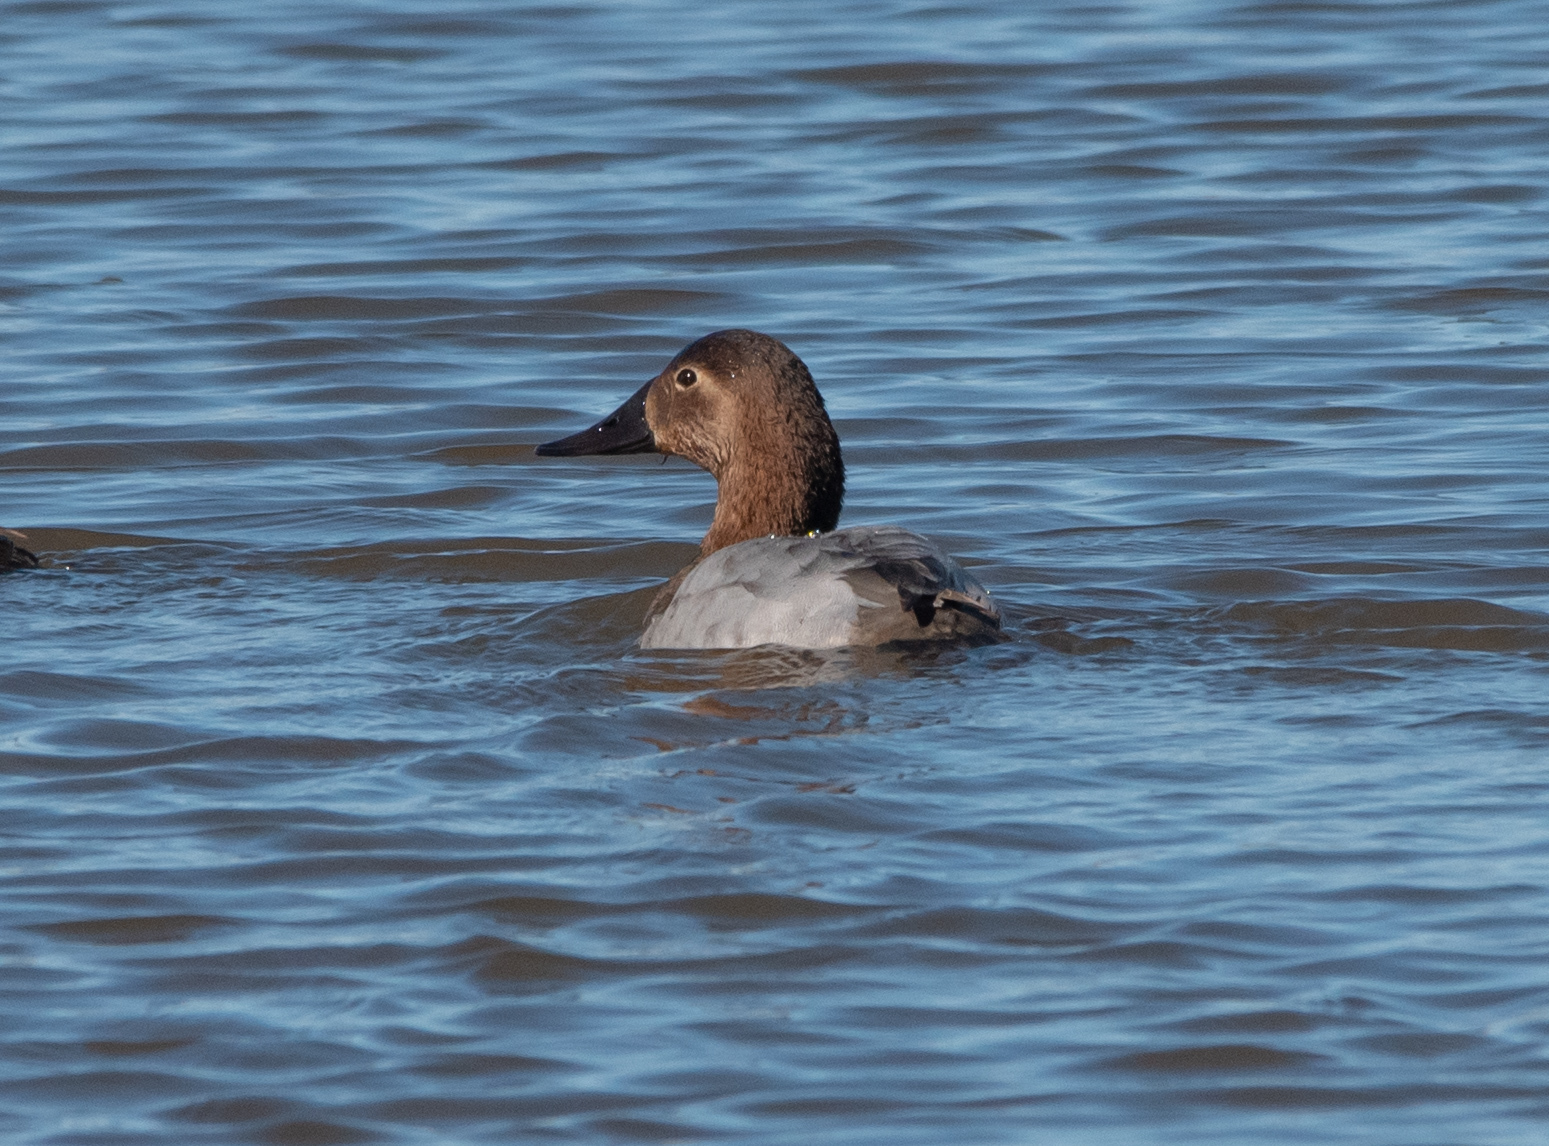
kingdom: Animalia
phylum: Chordata
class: Aves
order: Anseriformes
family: Anatidae
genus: Aythya
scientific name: Aythya valisineria
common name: Canvasback
